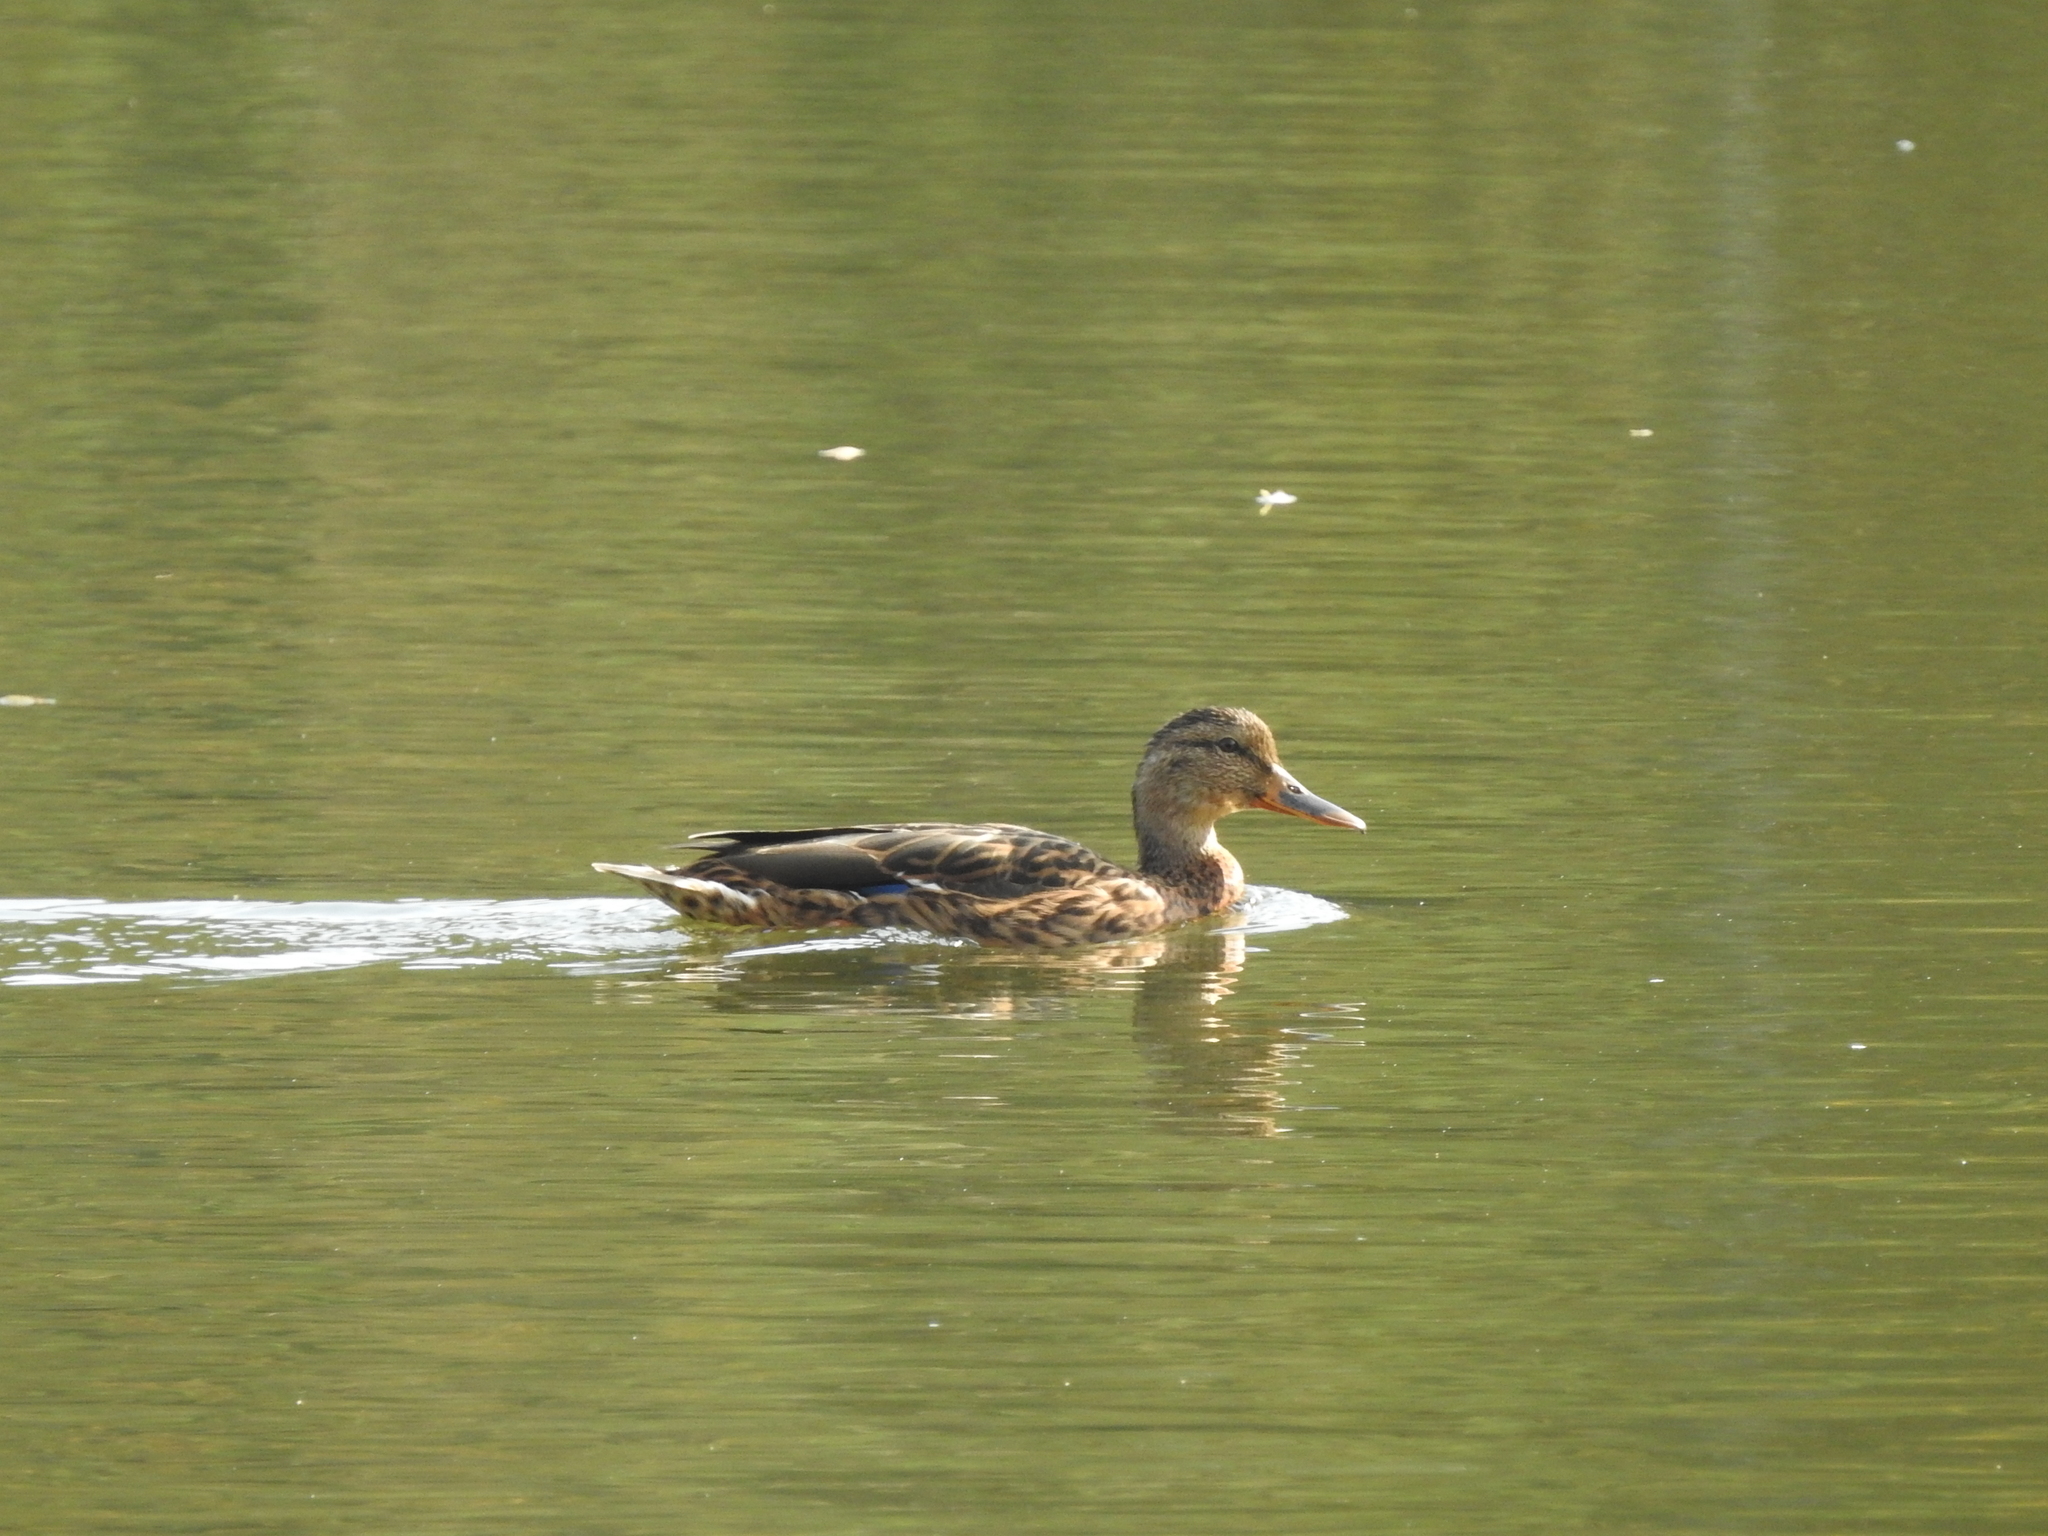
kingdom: Animalia
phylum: Chordata
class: Aves
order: Anseriformes
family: Anatidae
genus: Anas
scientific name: Anas platyrhynchos
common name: Mallard
